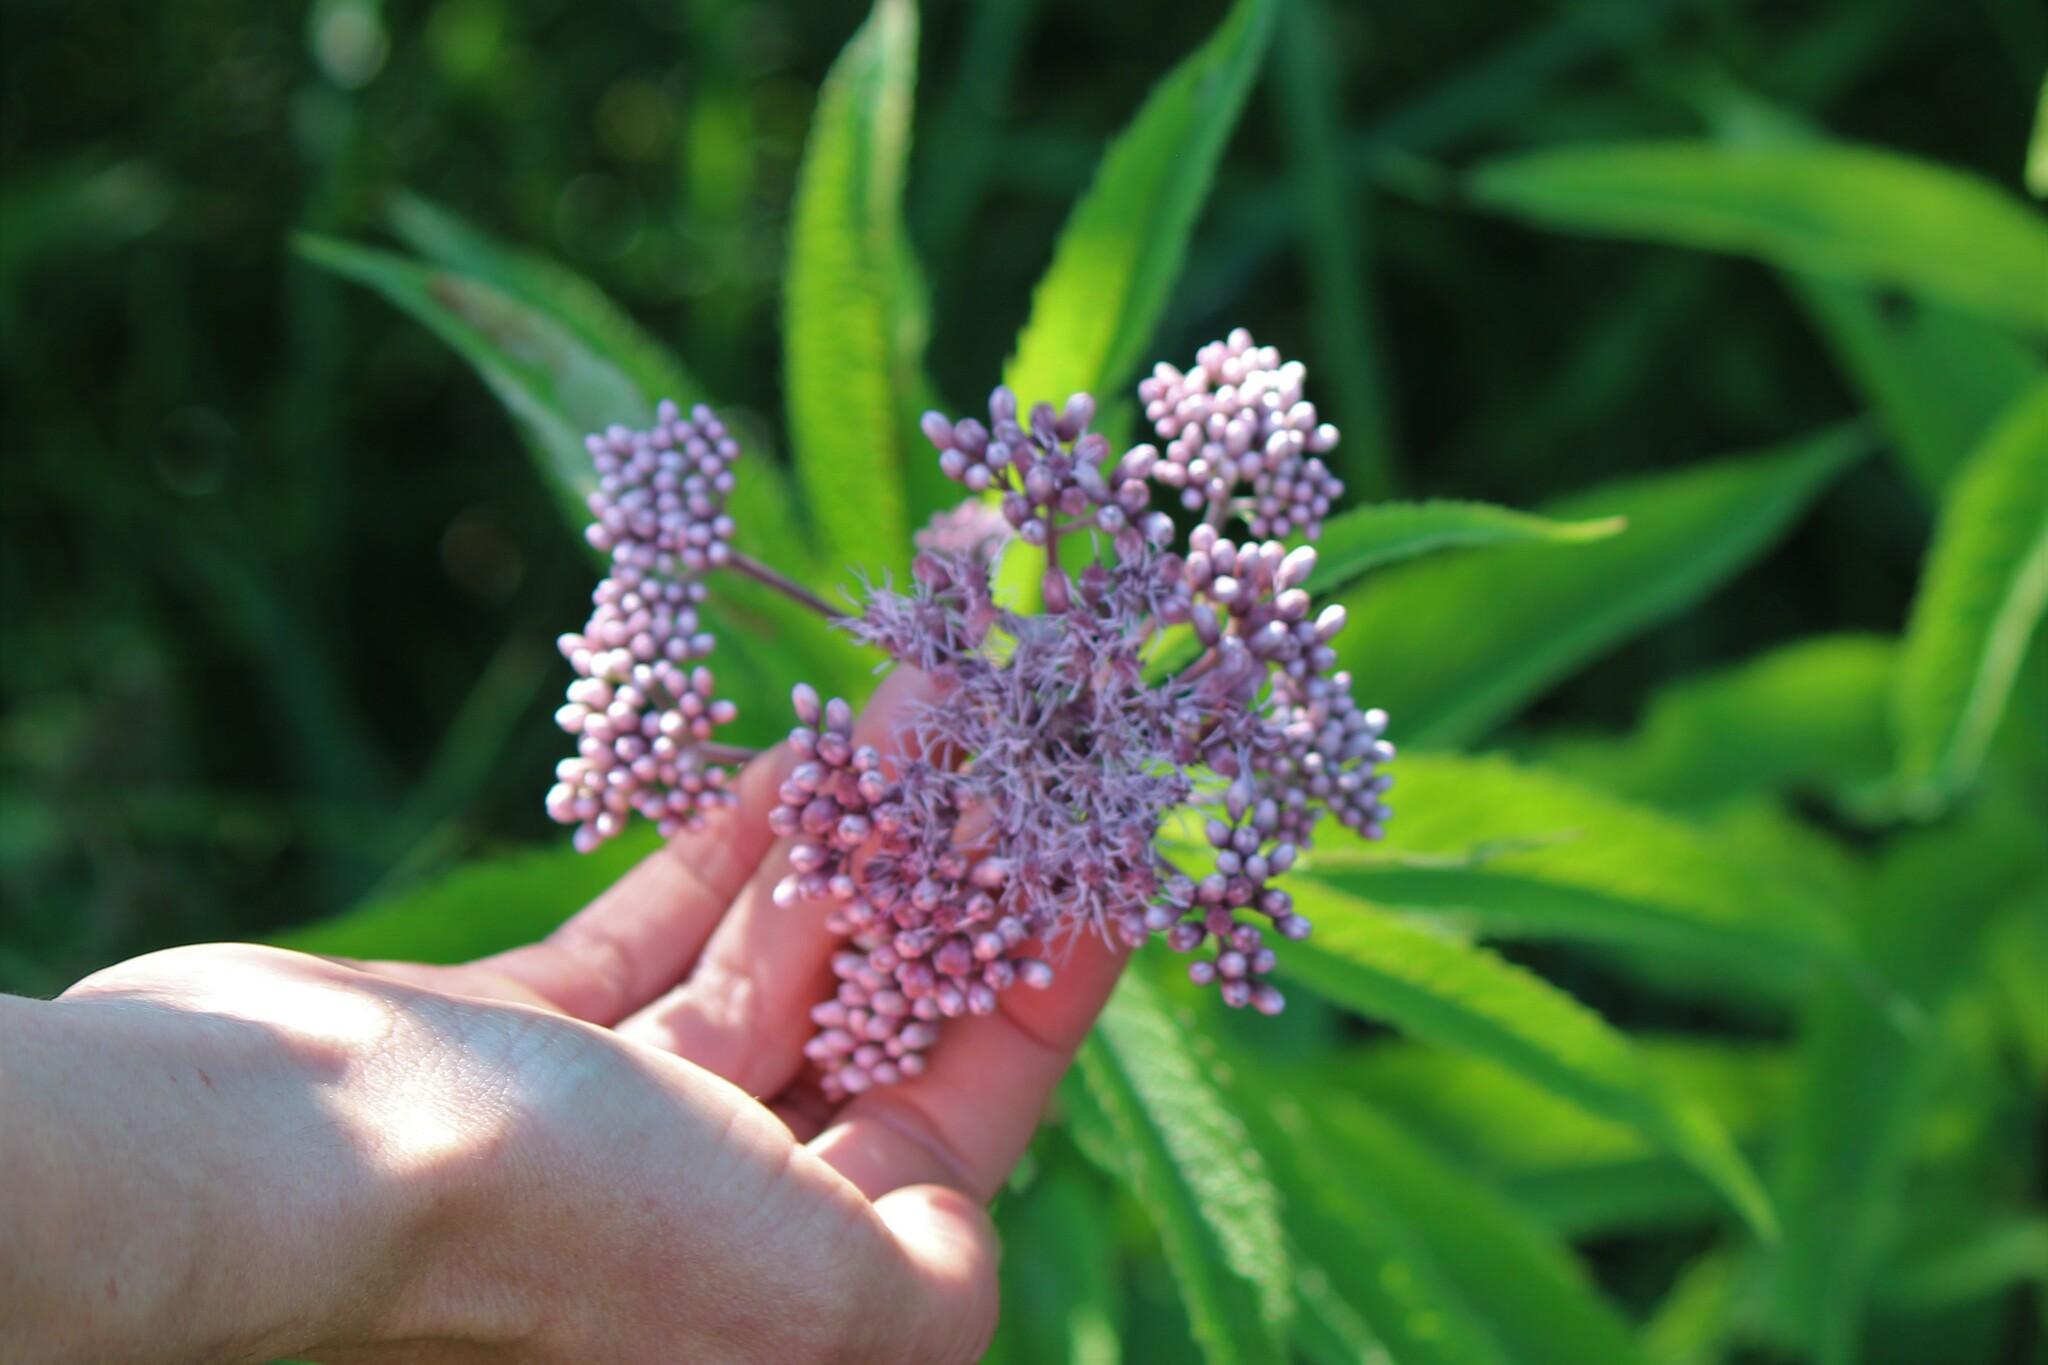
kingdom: Plantae
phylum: Tracheophyta
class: Magnoliopsida
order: Asterales
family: Asteraceae
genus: Eutrochium
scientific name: Eutrochium maculatum
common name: Spotted joe pye weed
